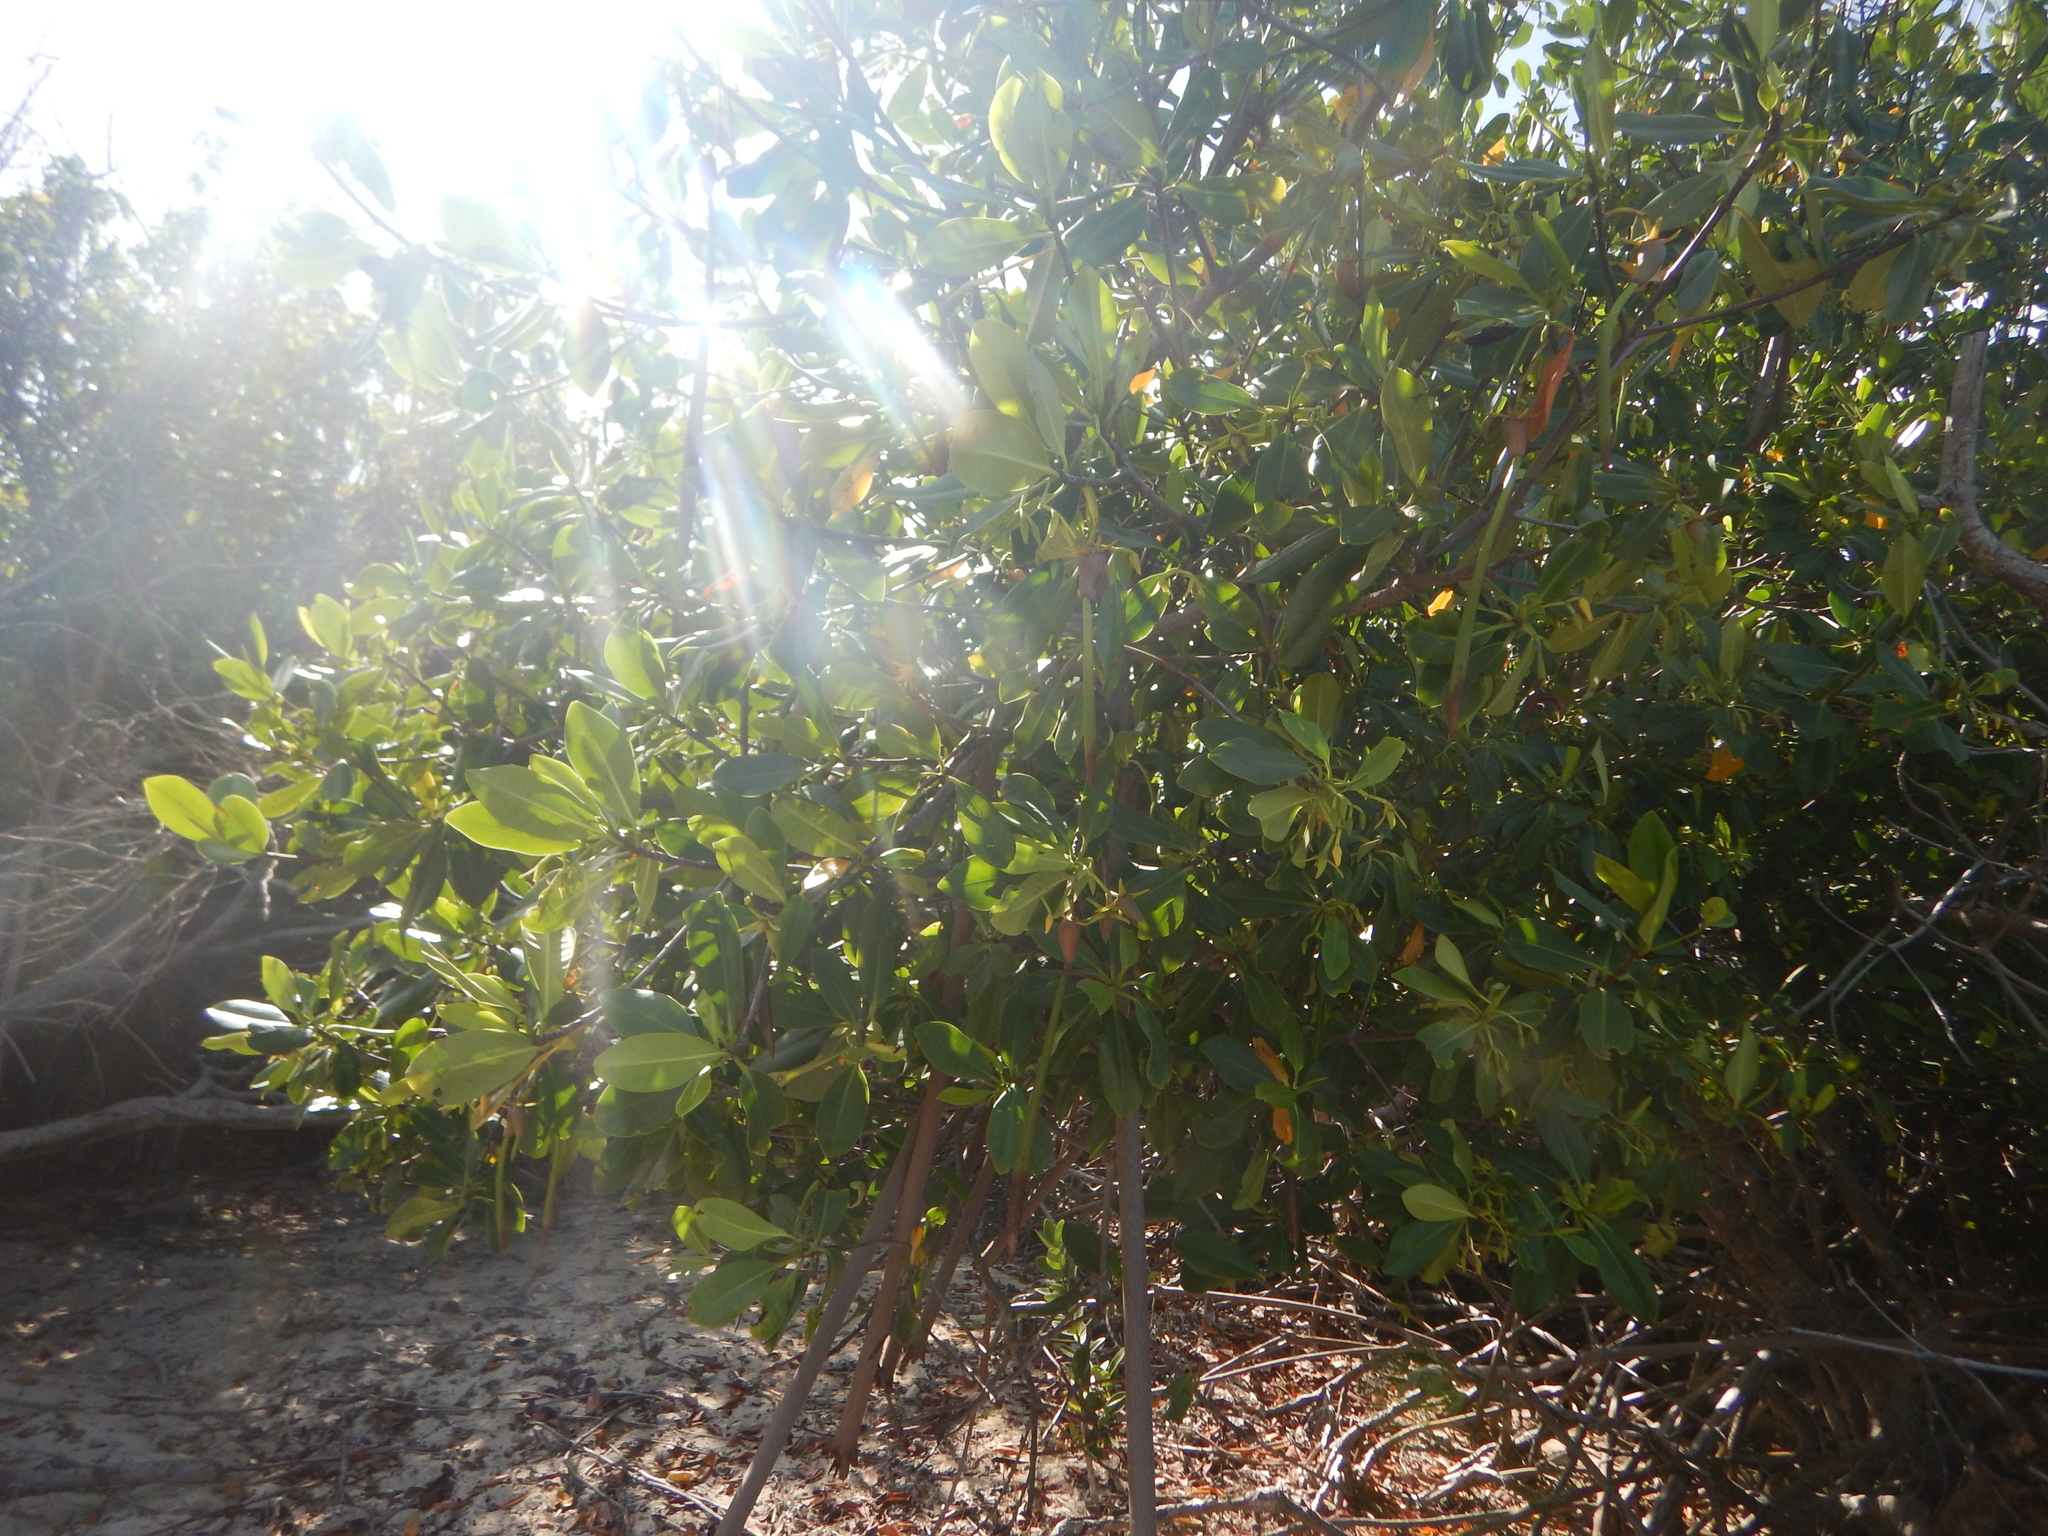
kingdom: Plantae
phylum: Tracheophyta
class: Magnoliopsida
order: Malpighiales
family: Rhizophoraceae
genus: Rhizophora
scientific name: Rhizophora mangle
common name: Red mangrove
